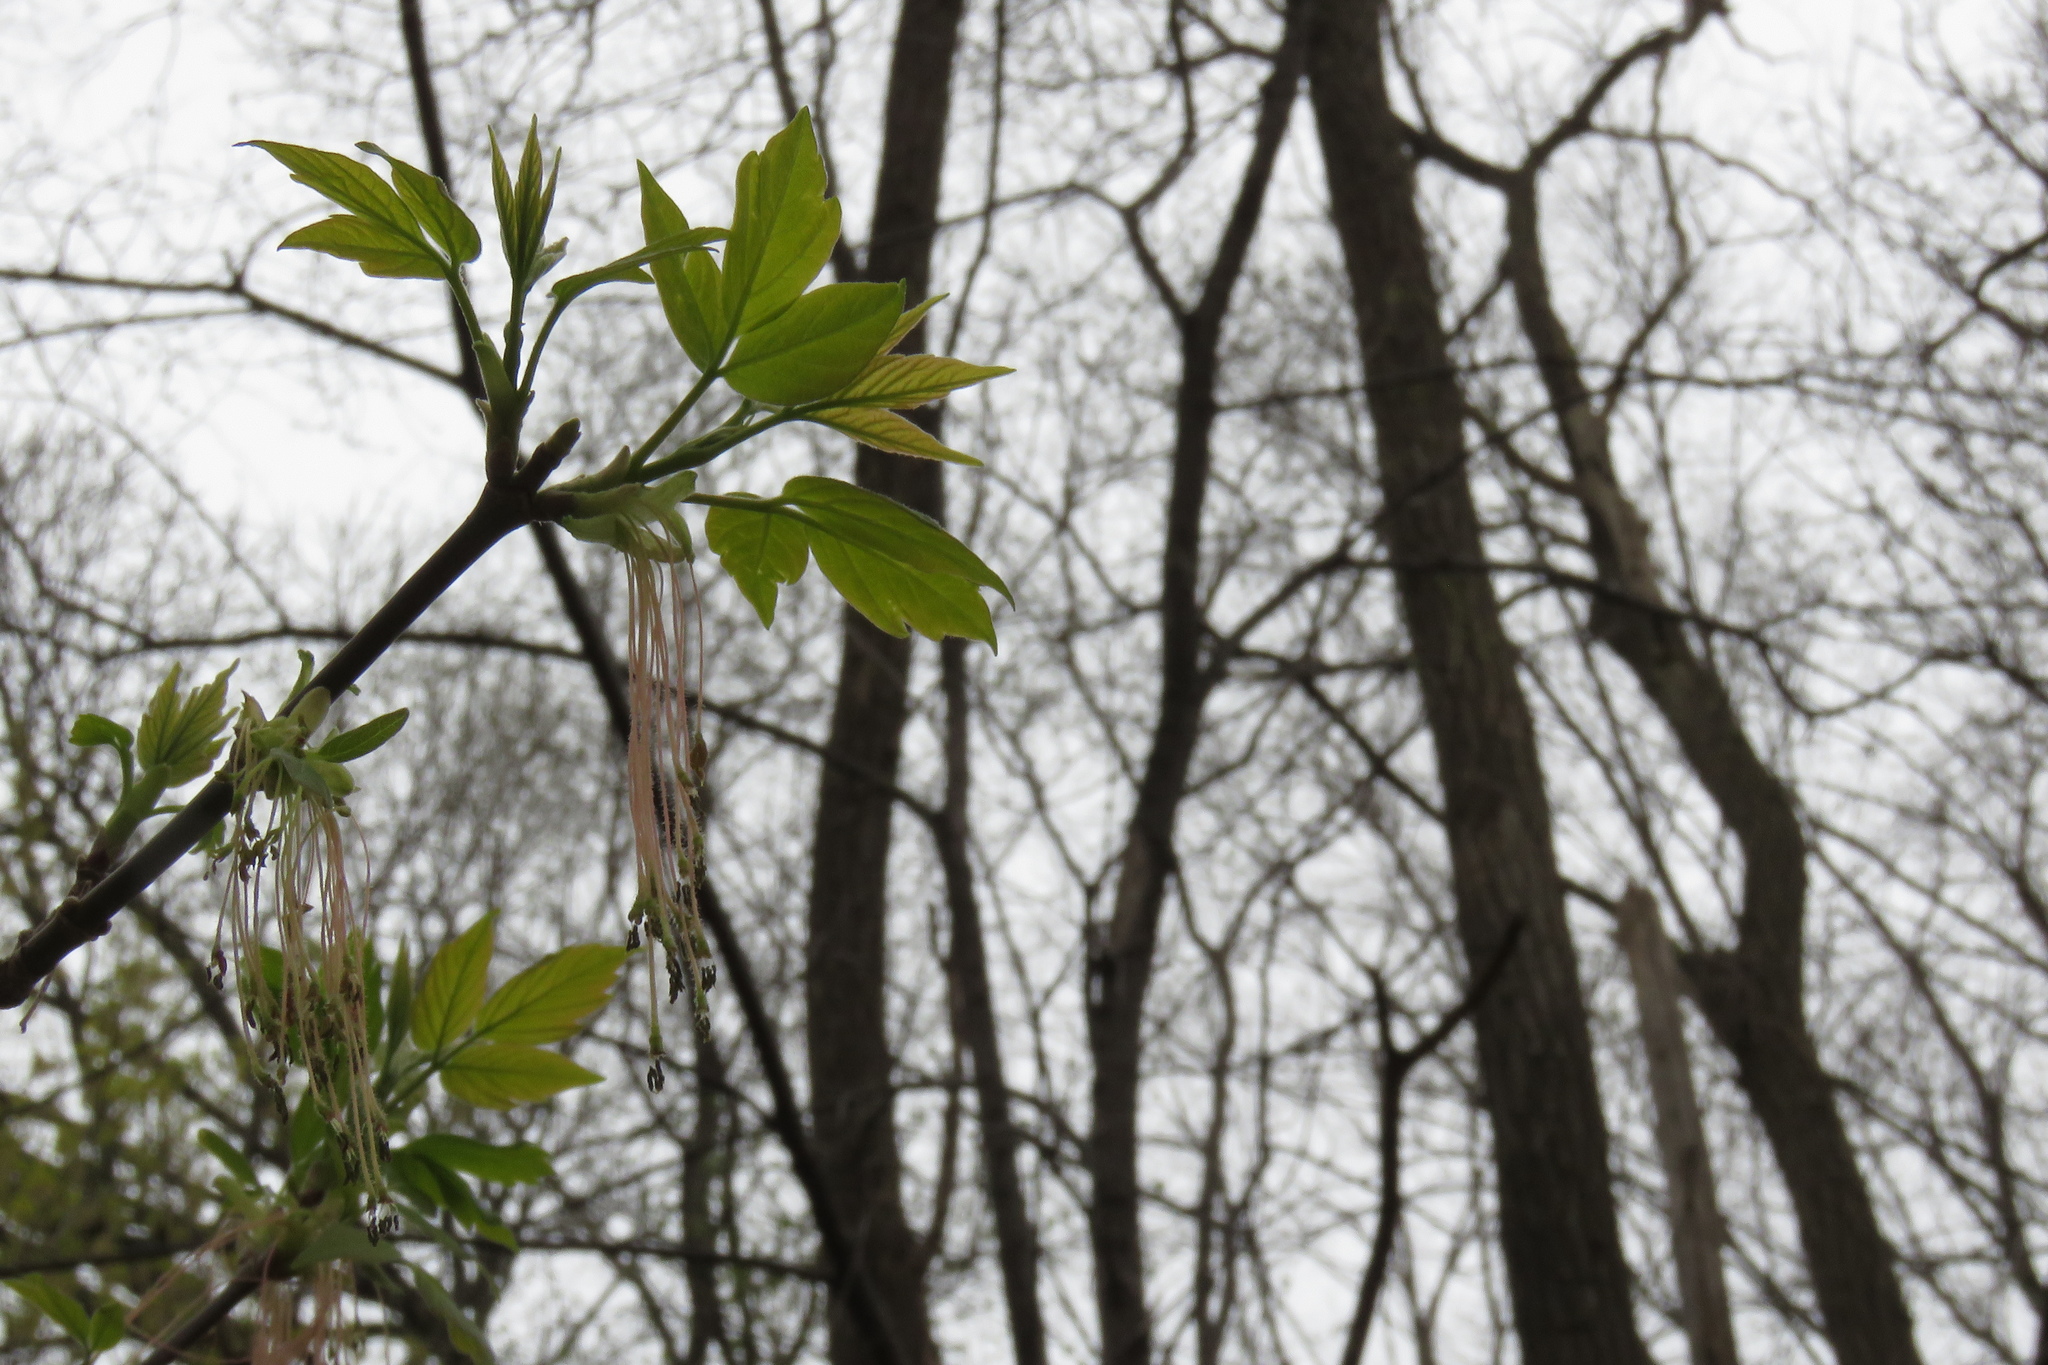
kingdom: Plantae
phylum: Tracheophyta
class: Magnoliopsida
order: Sapindales
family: Sapindaceae
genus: Acer
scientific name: Acer negundo
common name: Ashleaf maple
